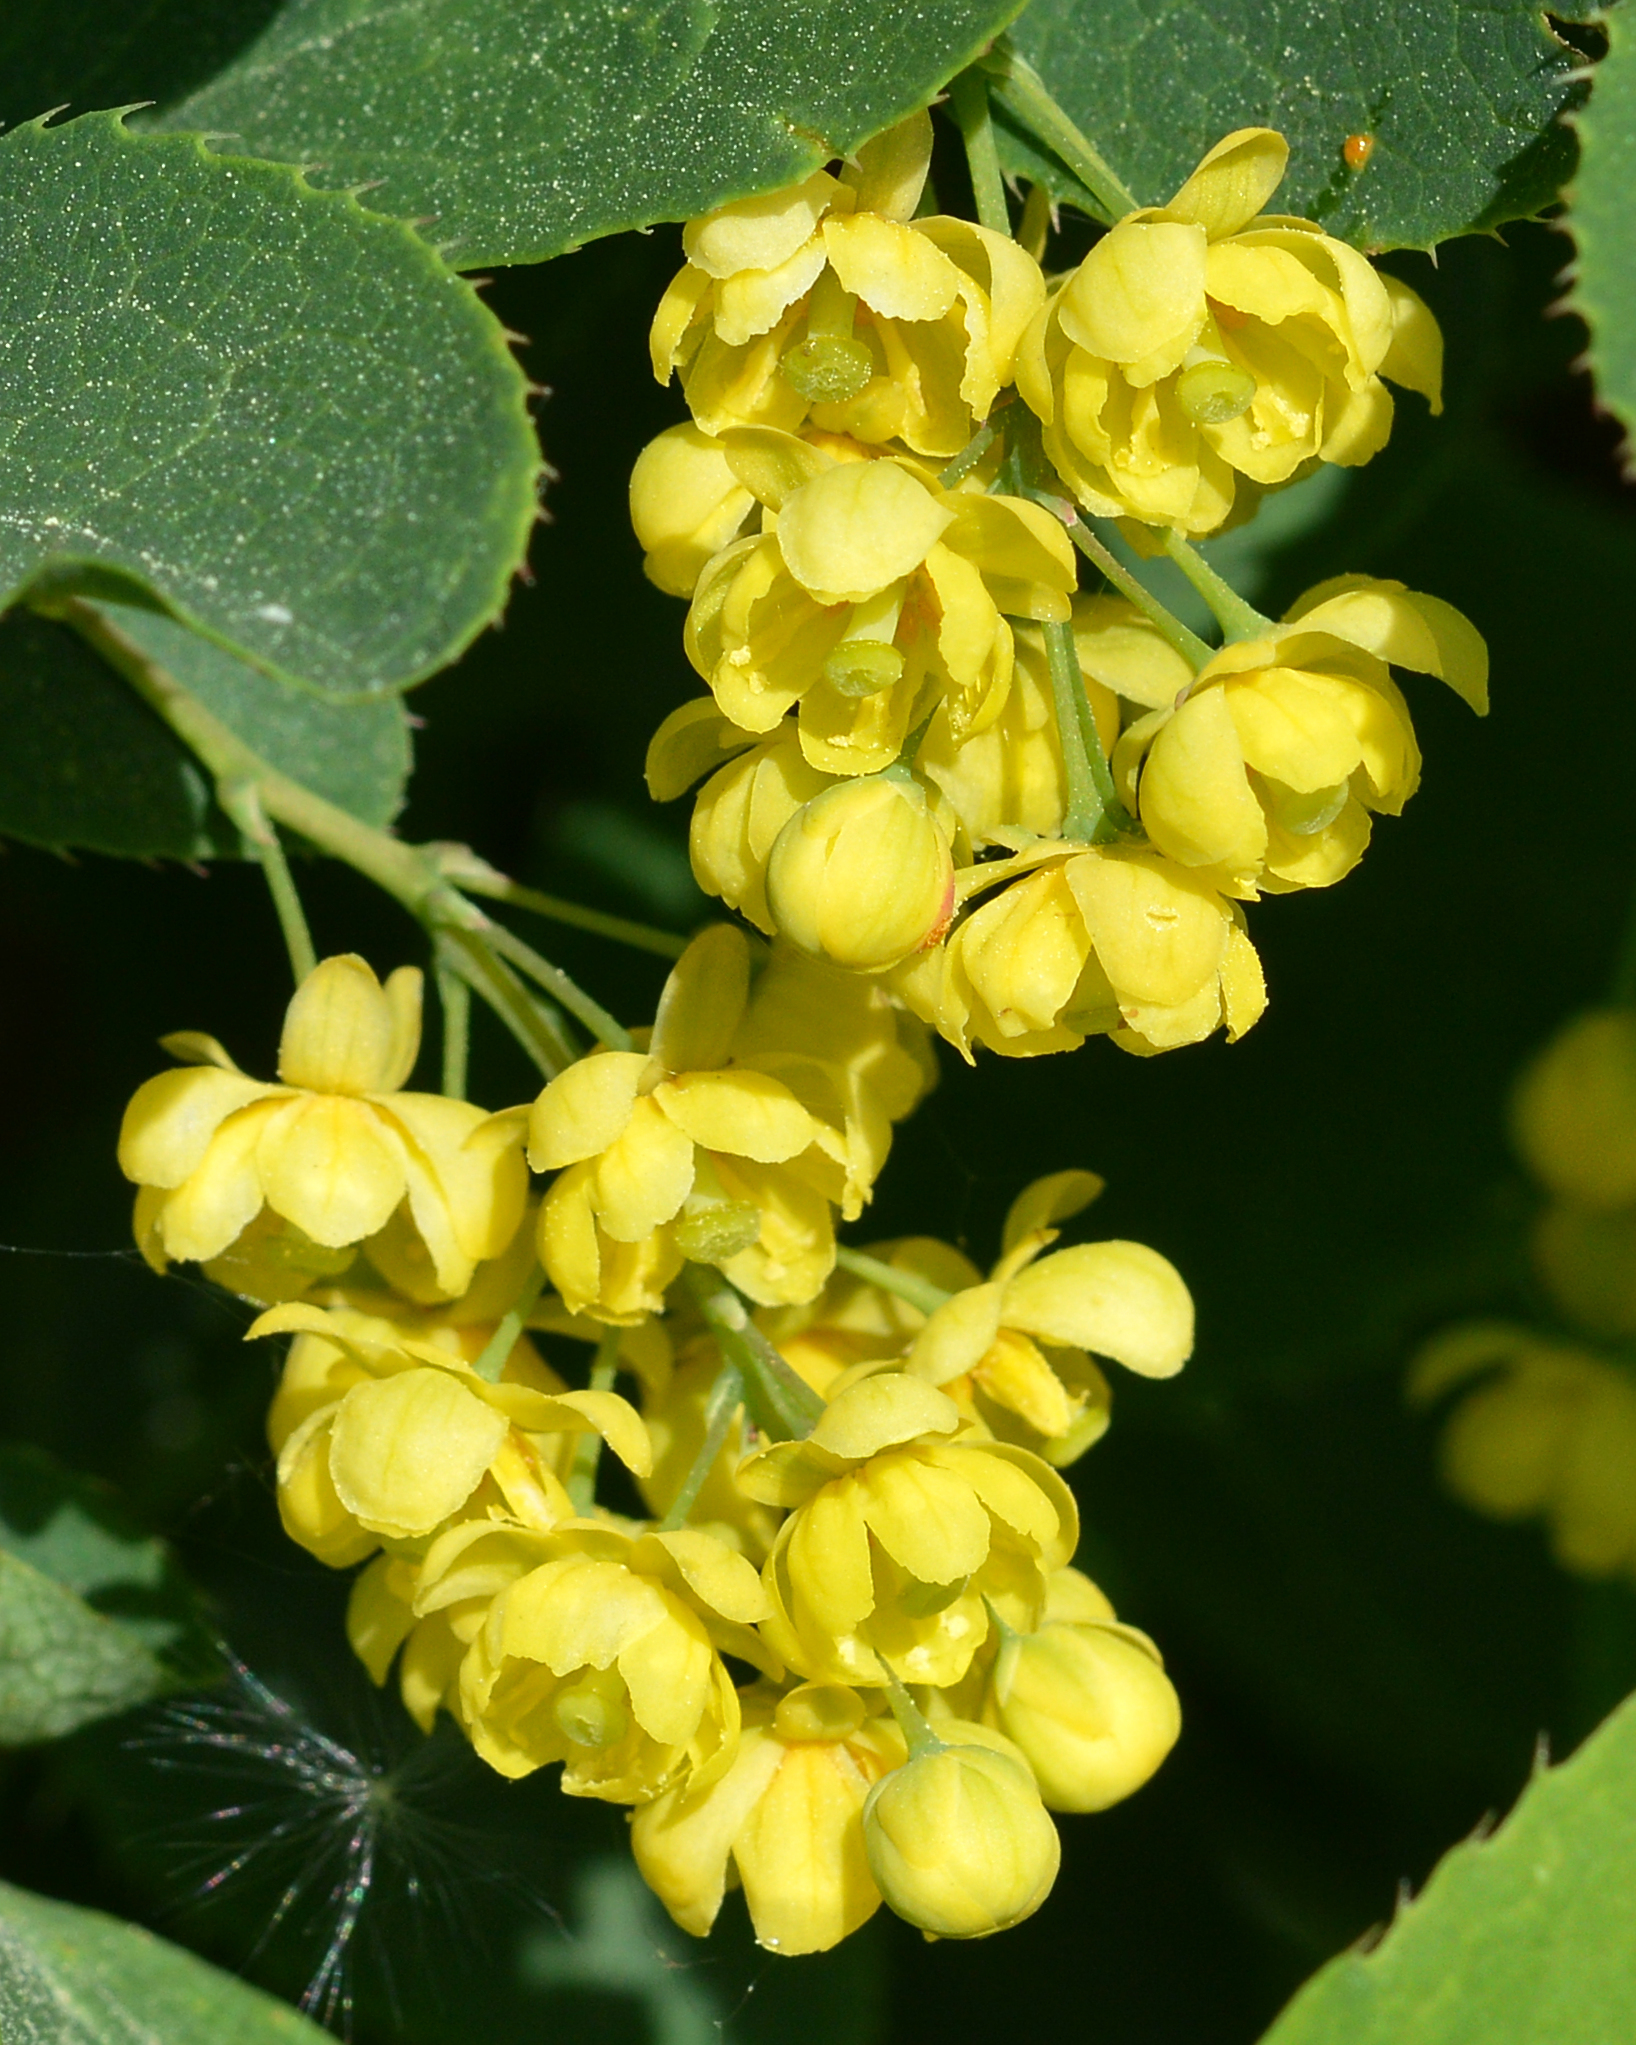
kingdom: Plantae
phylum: Tracheophyta
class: Magnoliopsida
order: Ranunculales
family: Berberidaceae
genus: Berberis
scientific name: Berberis vulgaris
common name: Barberry
